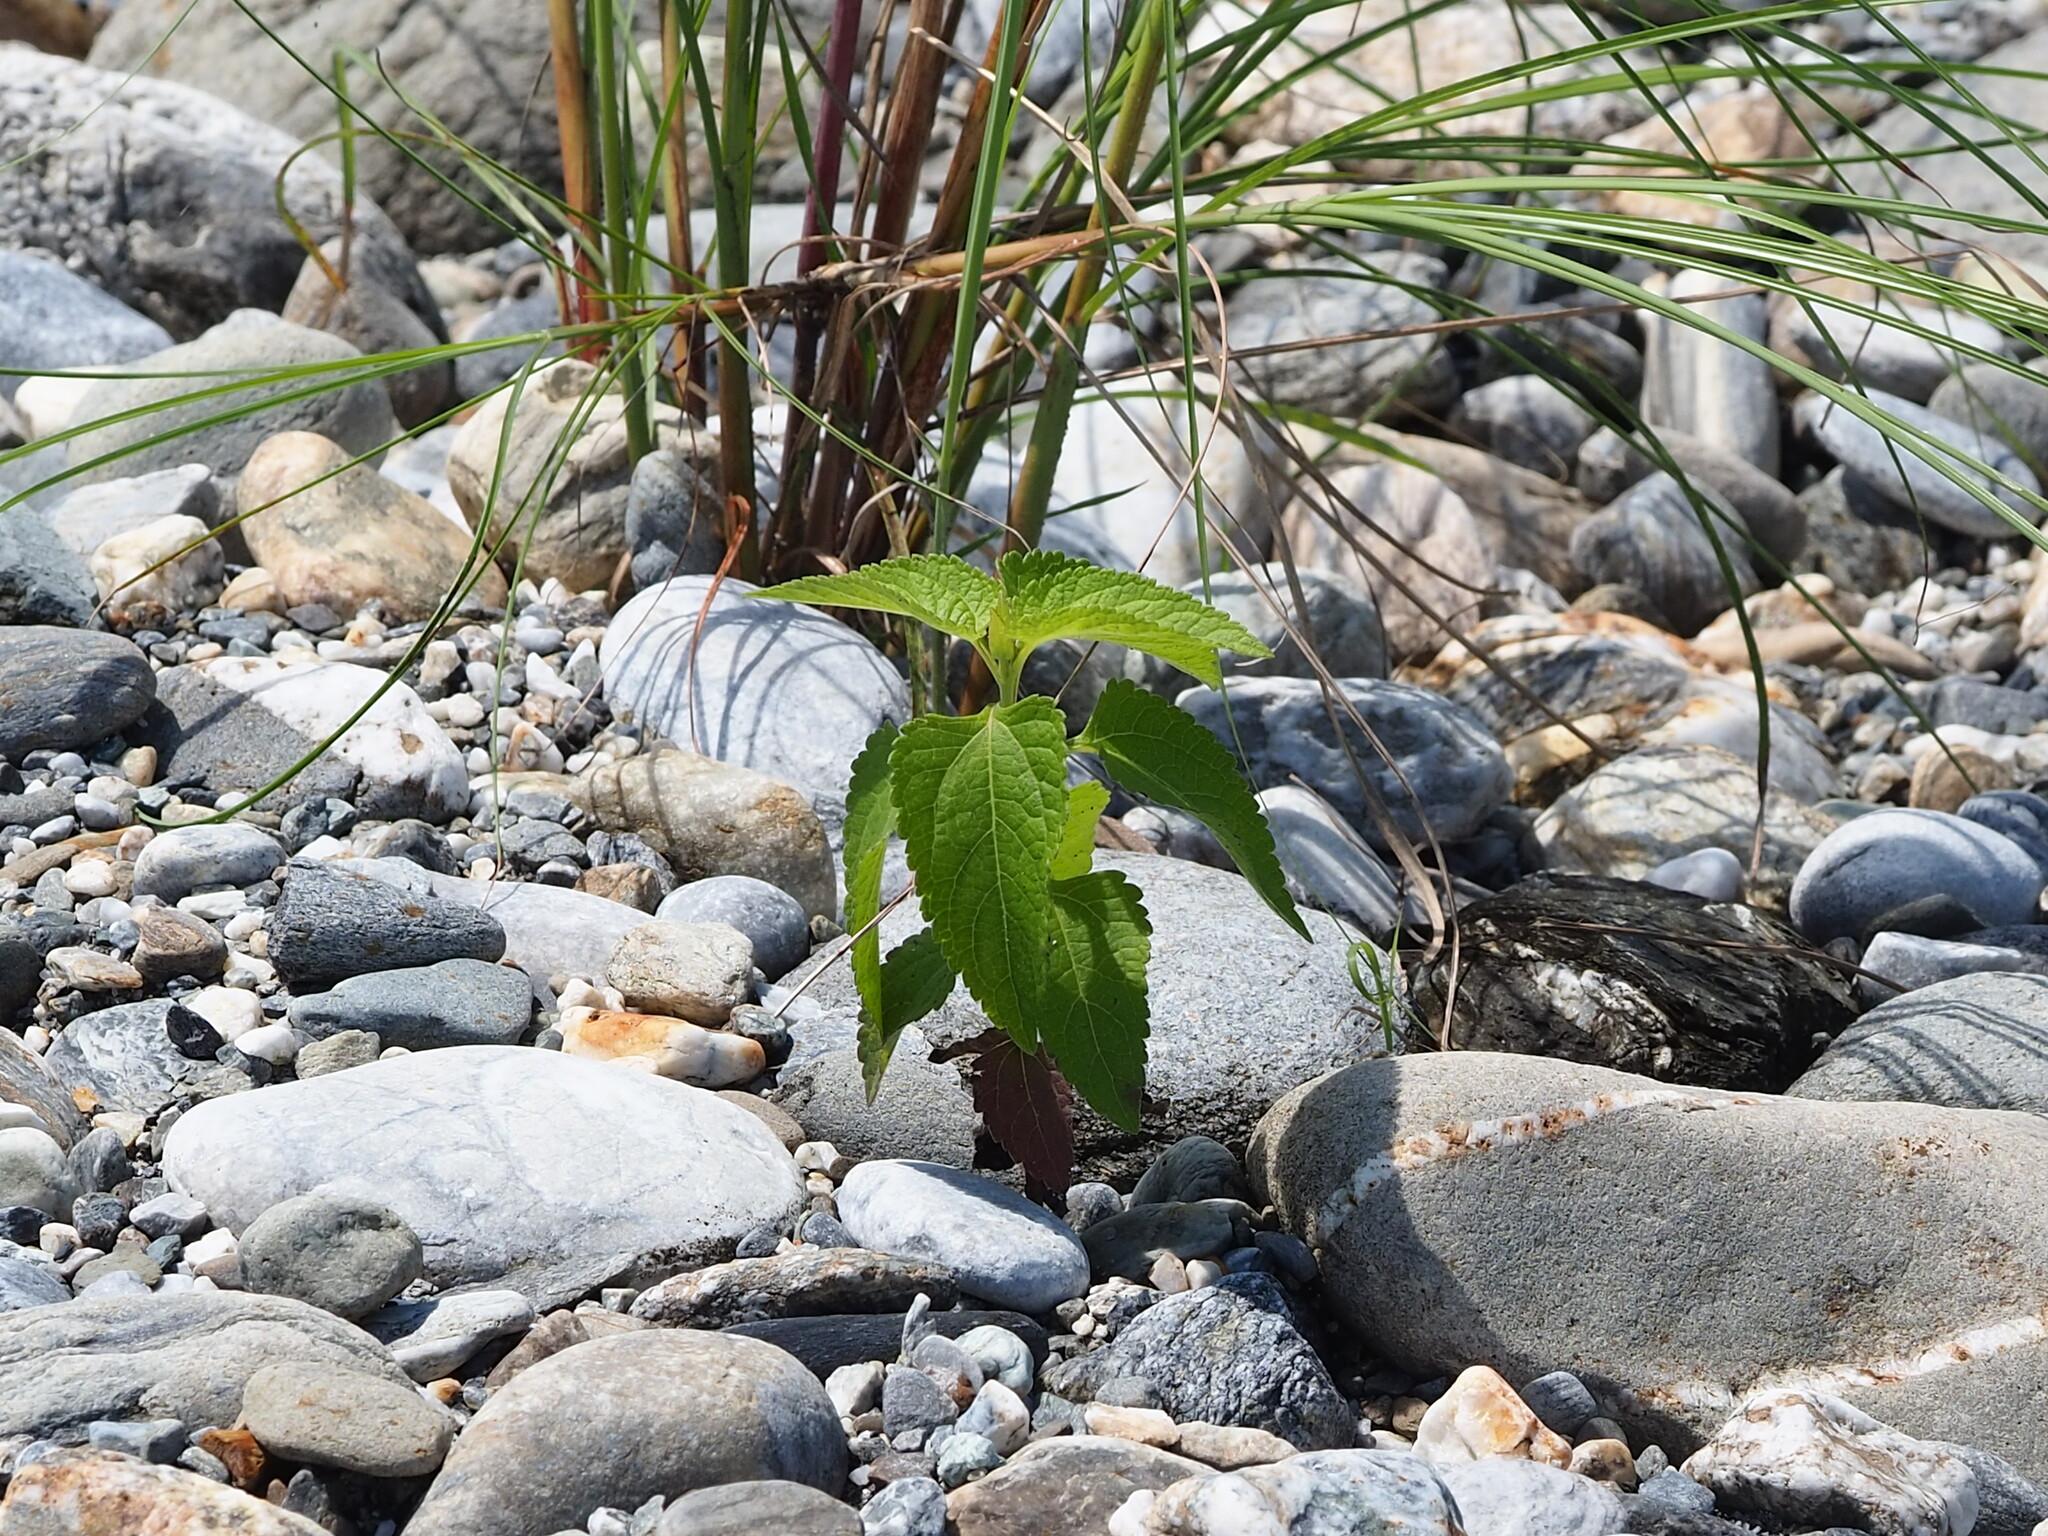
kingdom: Plantae
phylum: Tracheophyta
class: Magnoliopsida
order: Asterales
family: Asteraceae
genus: Austroeupatorium
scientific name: Austroeupatorium inulifolium
